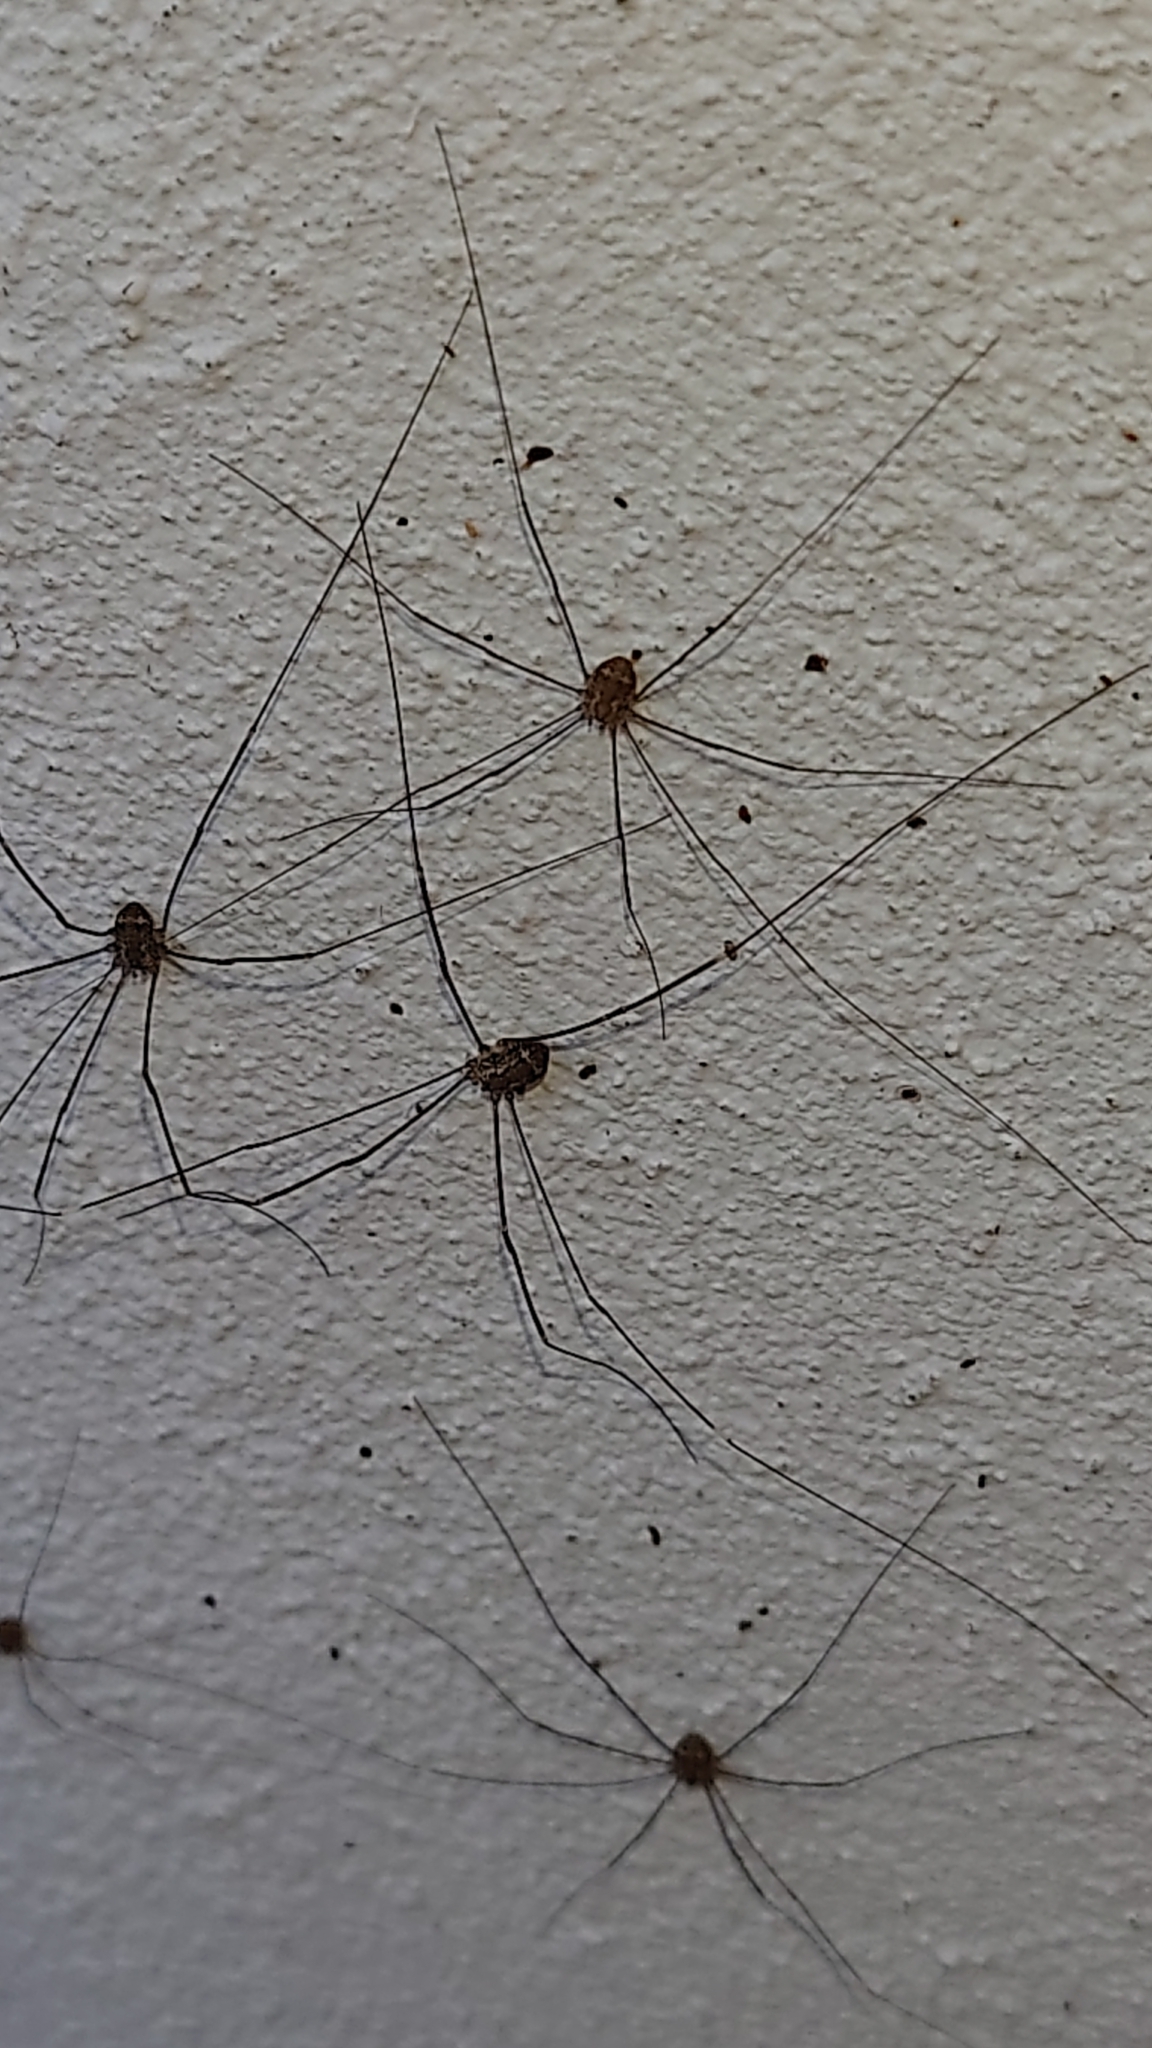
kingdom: Animalia
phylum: Arthropoda
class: Arachnida
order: Opiliones
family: Sclerosomatidae
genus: Leiobunum
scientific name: Leiobunum
